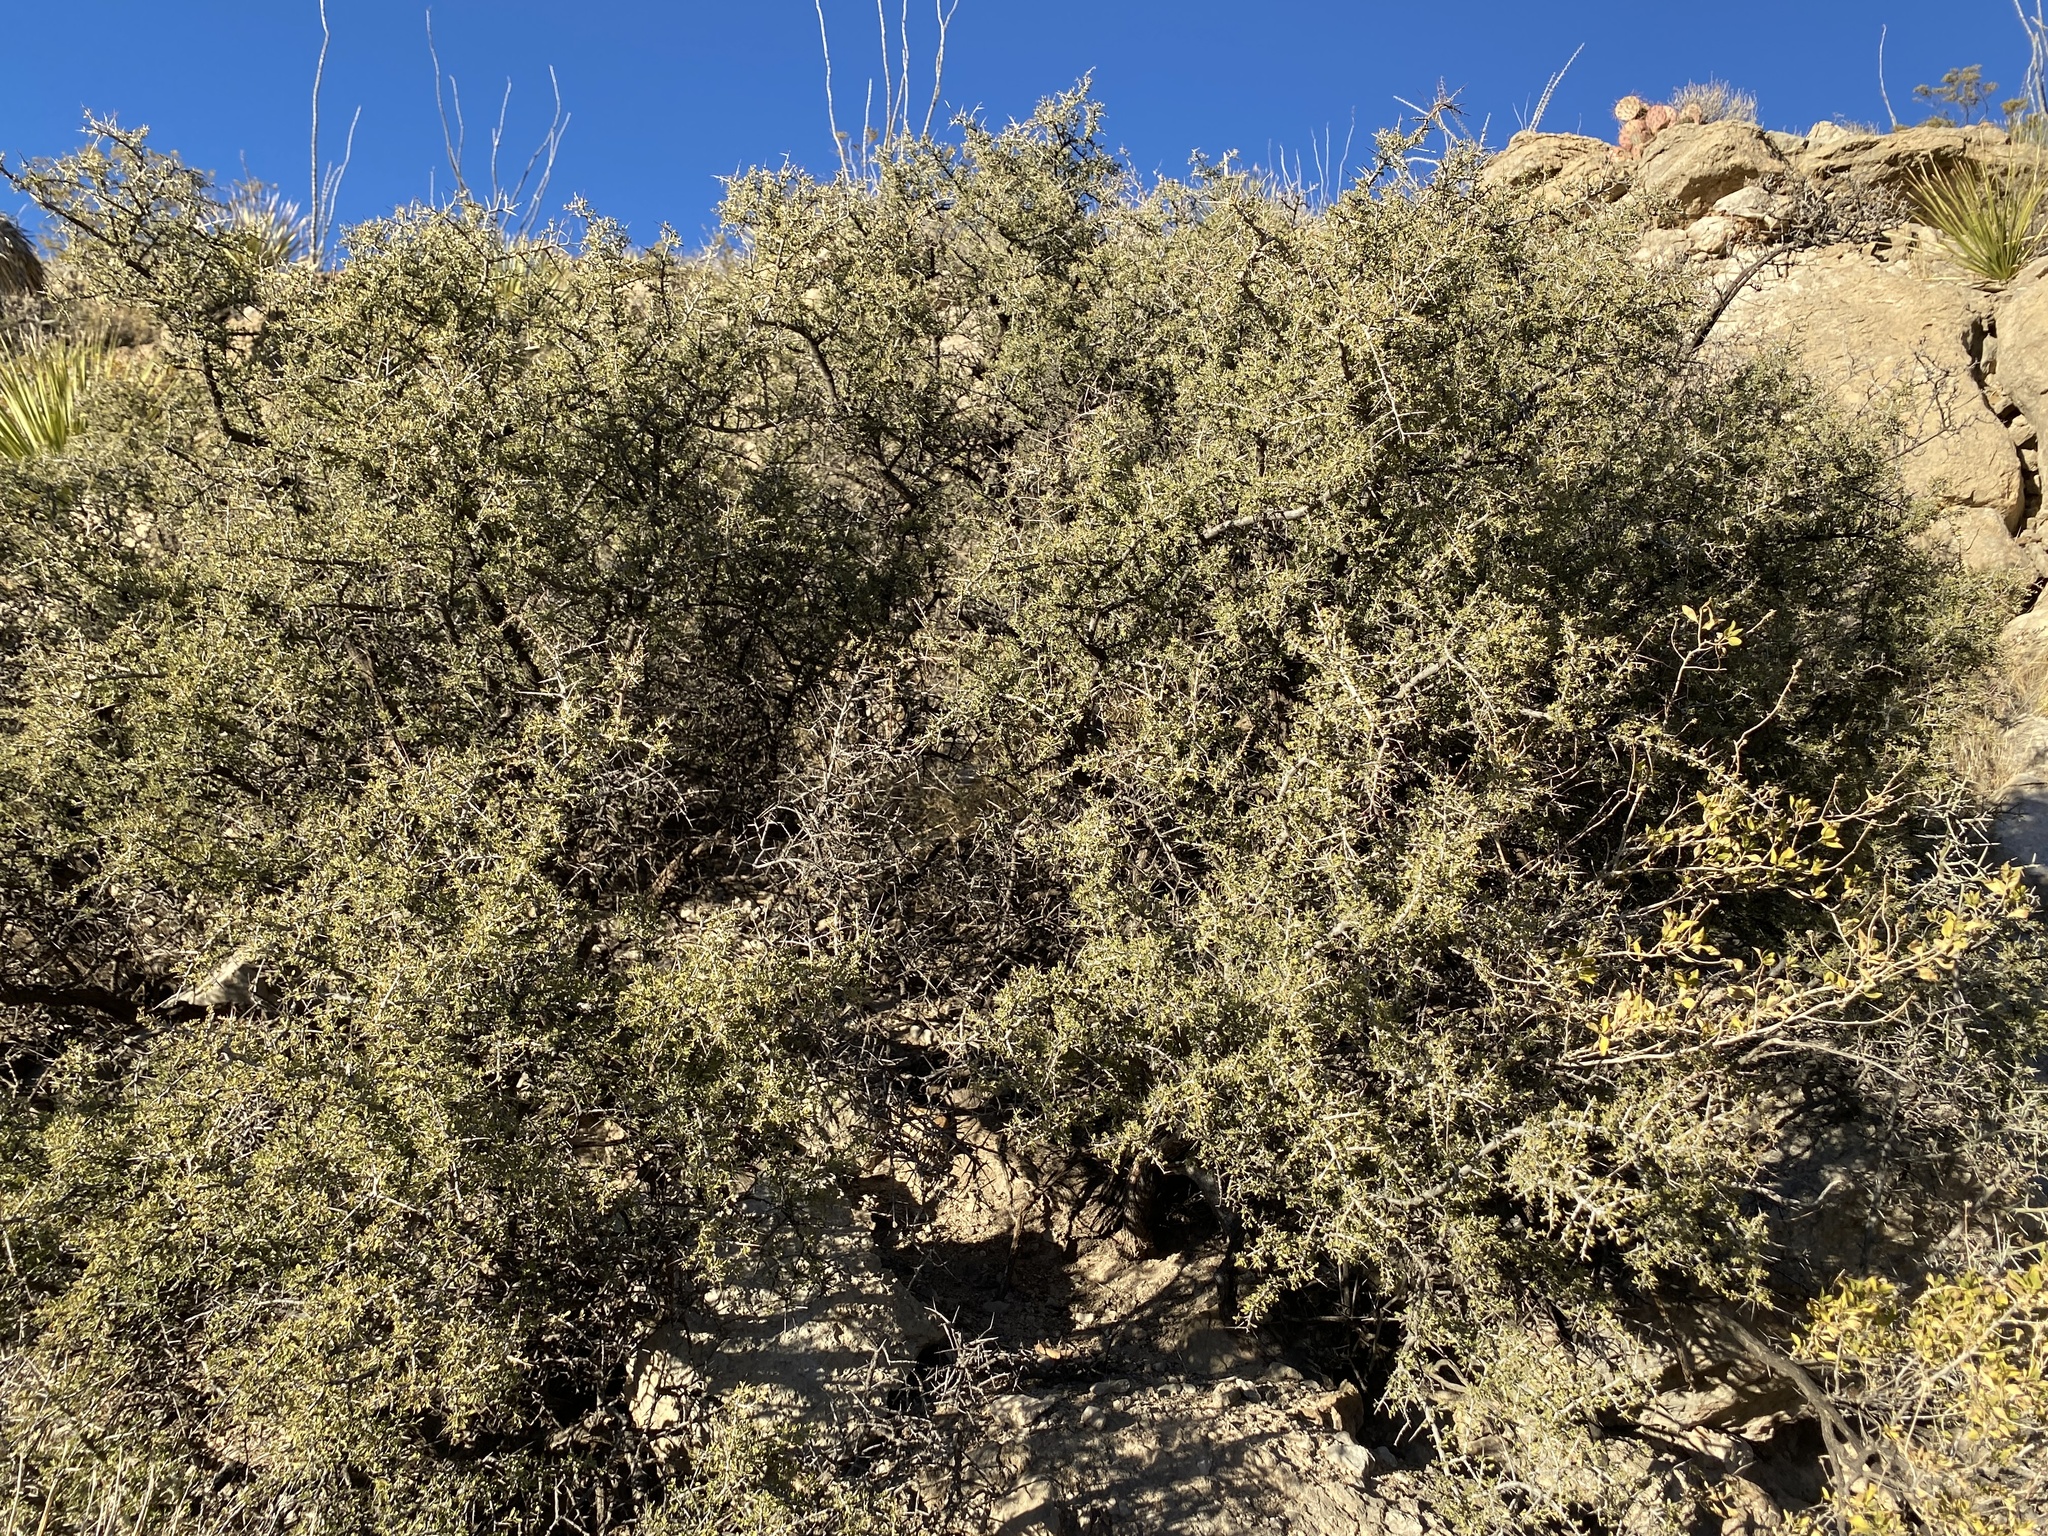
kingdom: Plantae
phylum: Tracheophyta
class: Magnoliopsida
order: Rosales
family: Rhamnaceae
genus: Condalia
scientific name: Condalia warnockii
